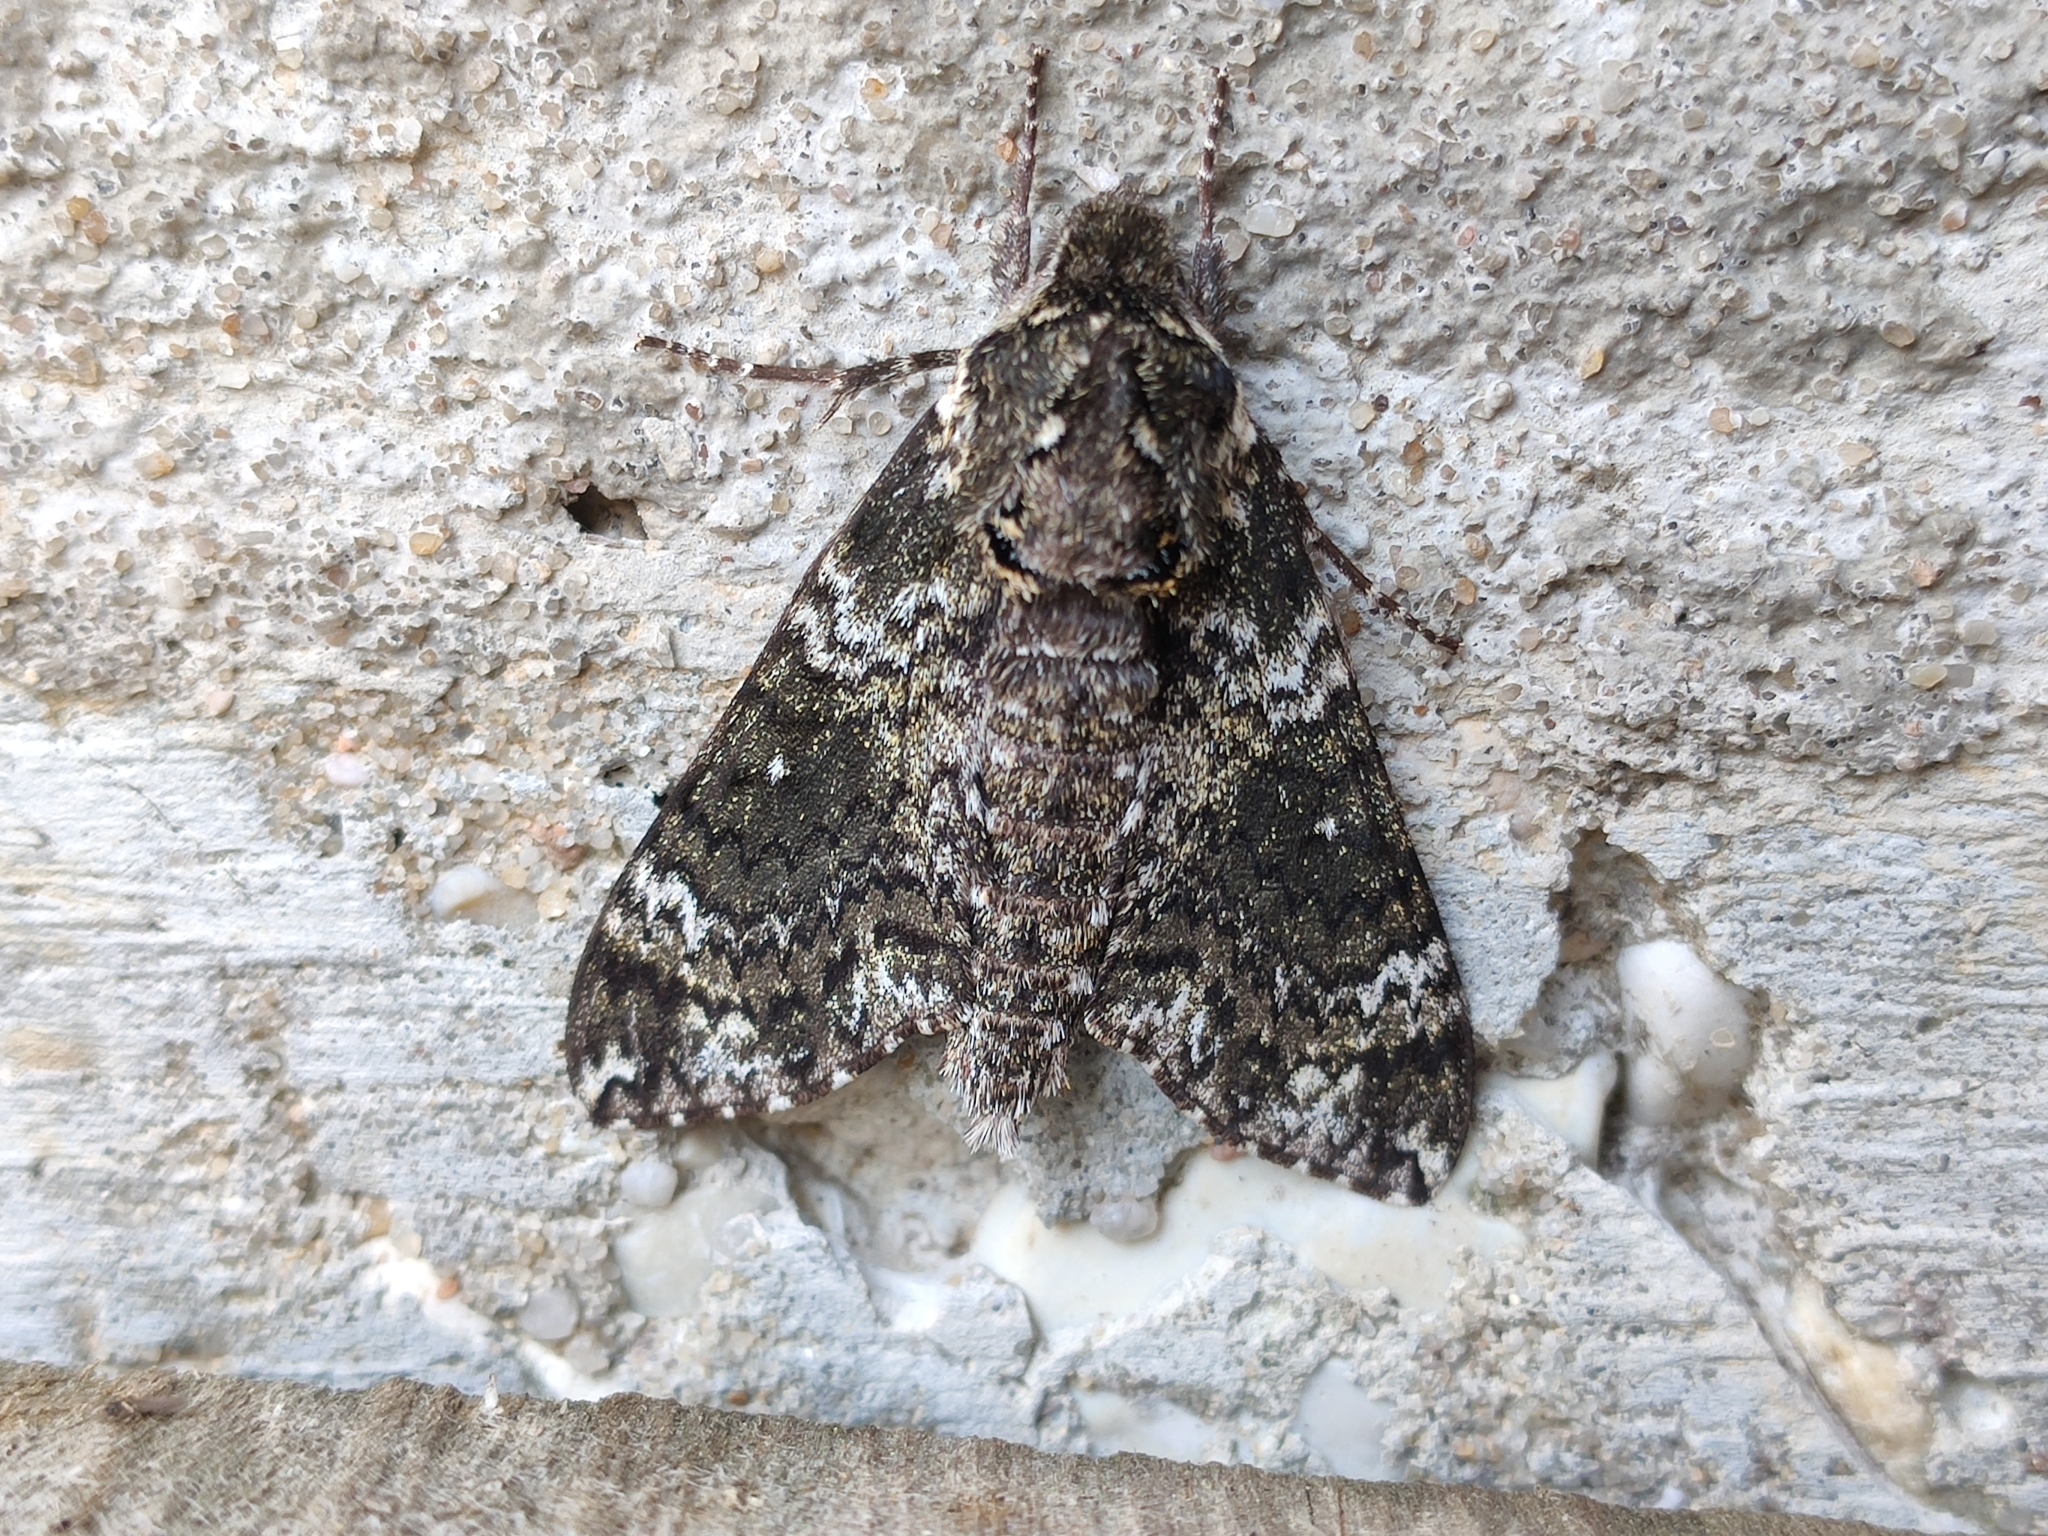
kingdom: Animalia
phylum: Arthropoda
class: Insecta
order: Lepidoptera
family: Sphingidae
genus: Dolba
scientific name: Dolba hyloeus
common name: Pawpaw sphinx
